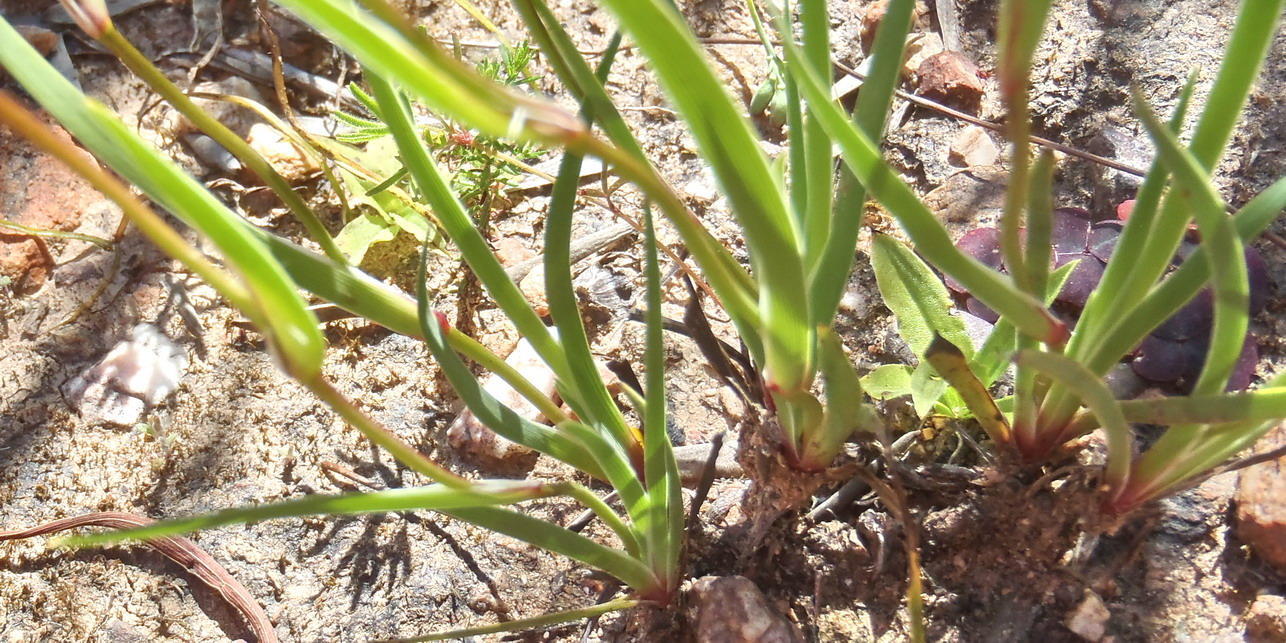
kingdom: Plantae
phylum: Tracheophyta
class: Liliopsida
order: Asparagales
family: Iridaceae
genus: Aristea
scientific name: Aristea africana
